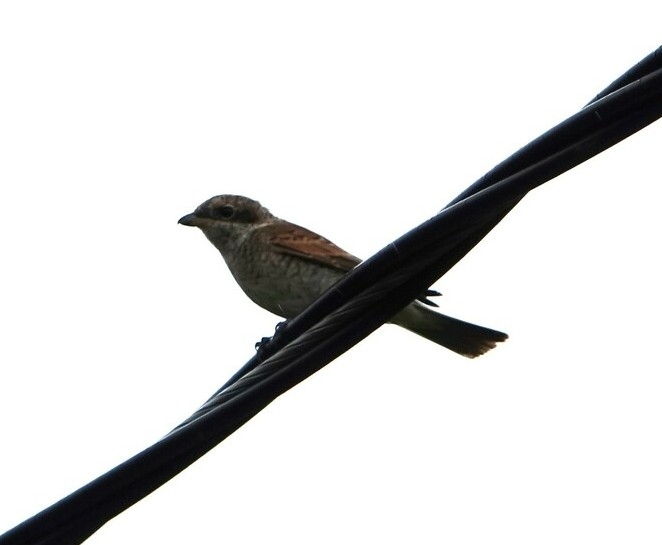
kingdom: Animalia
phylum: Chordata
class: Aves
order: Passeriformes
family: Laniidae
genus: Lanius
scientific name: Lanius collurio
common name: Red-backed shrike
